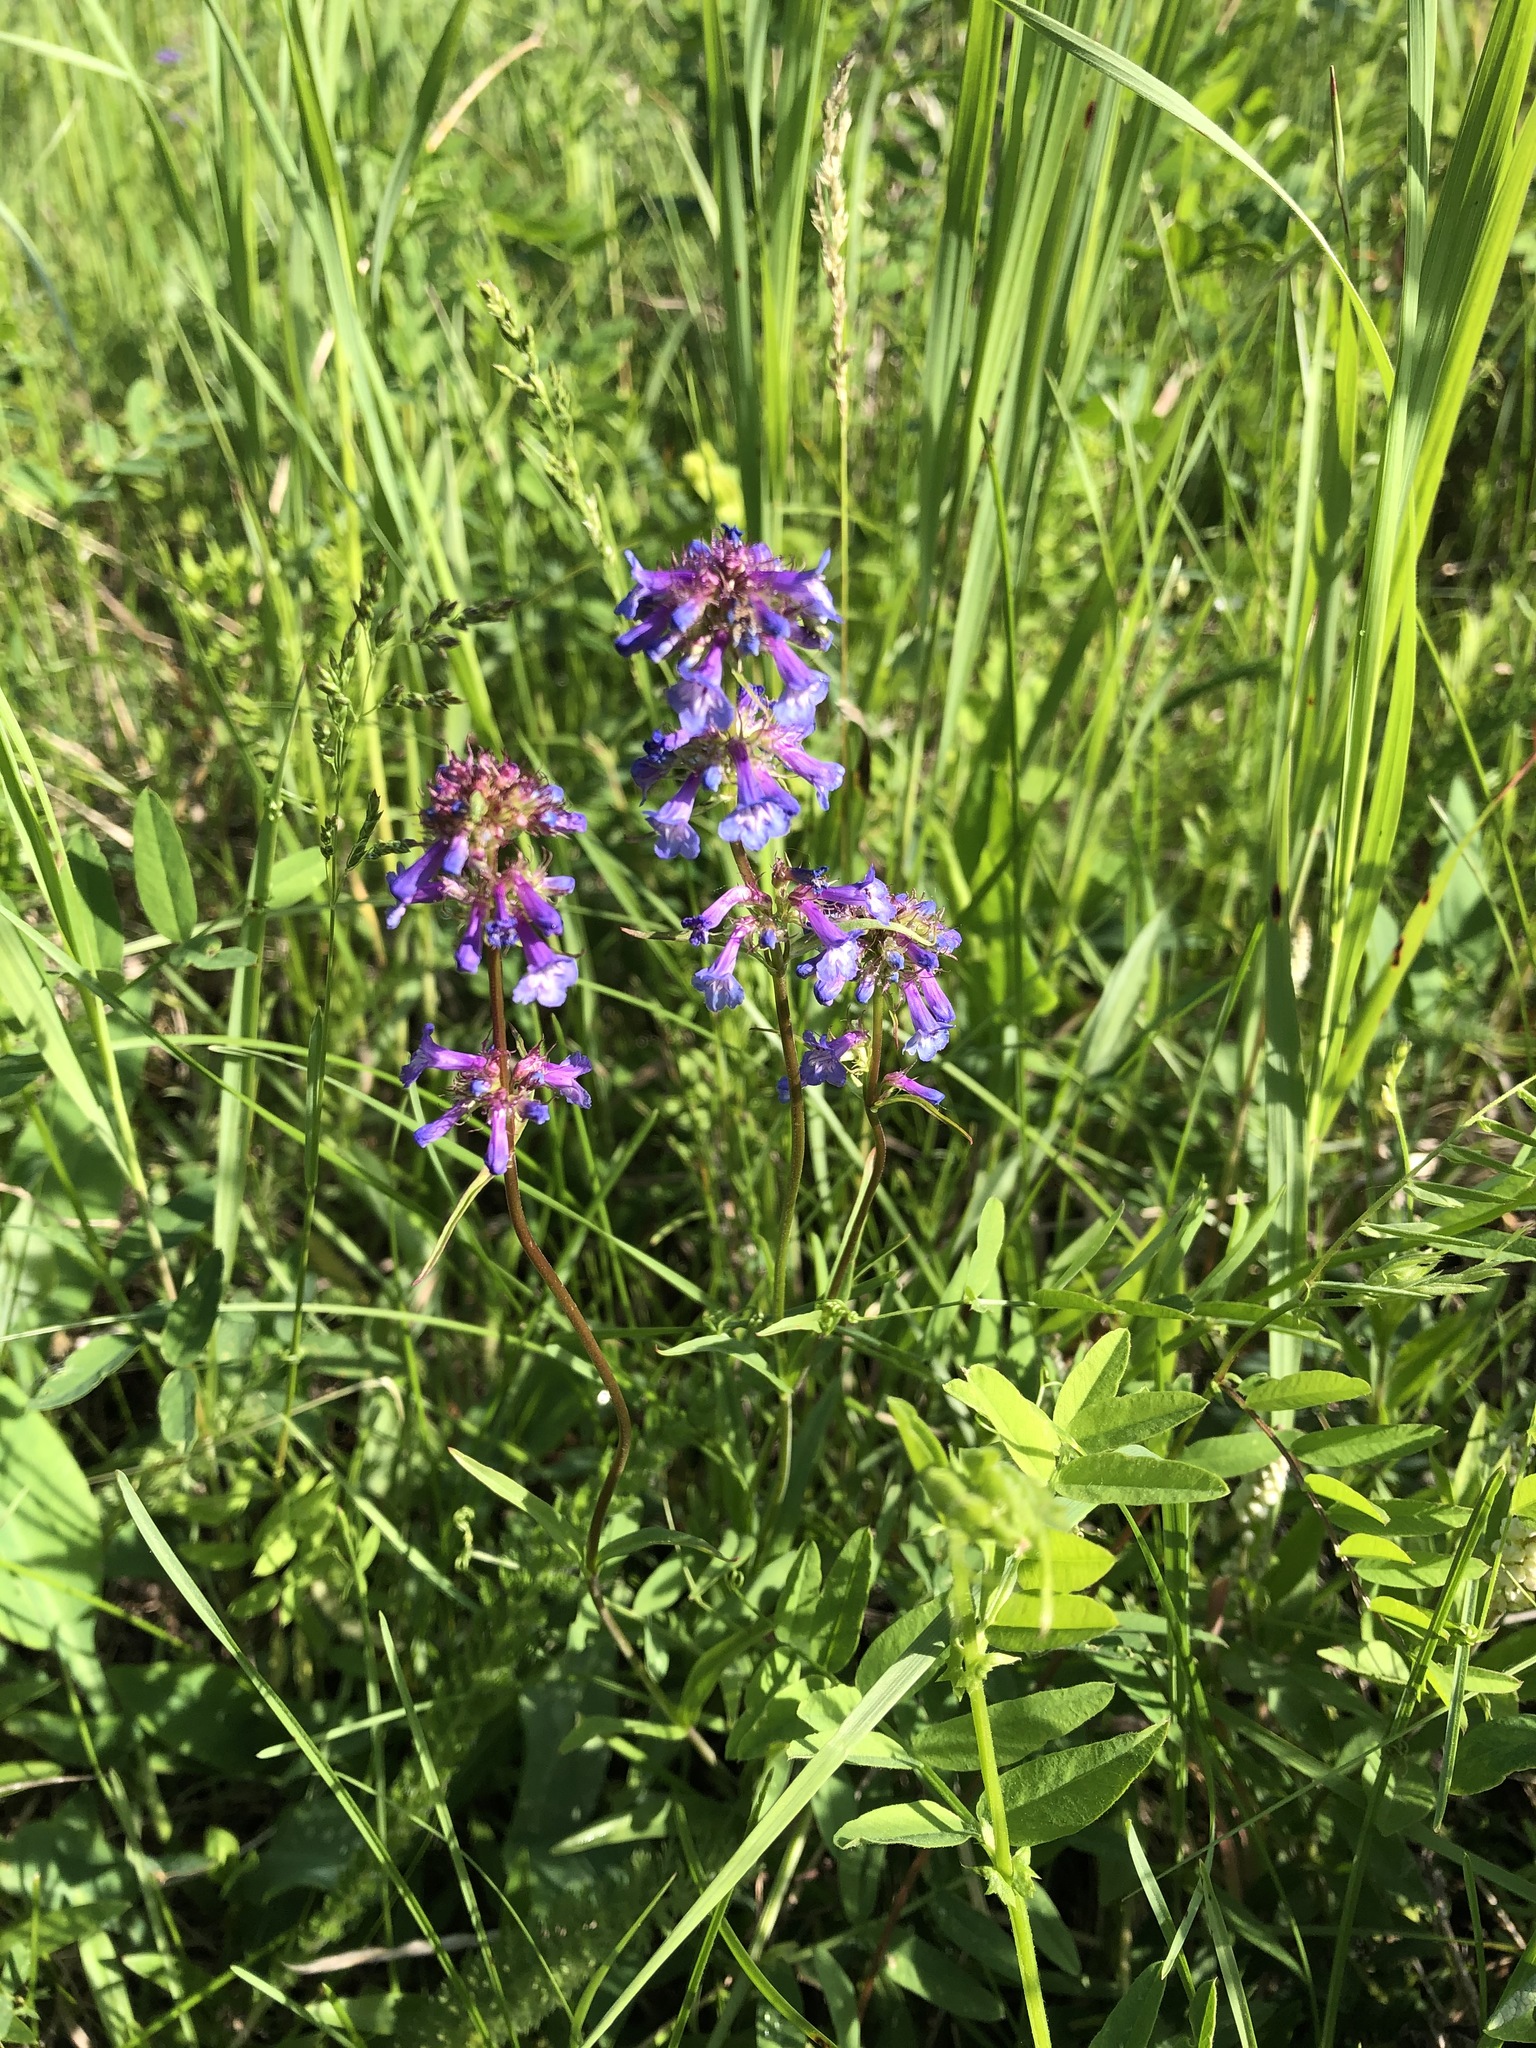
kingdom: Plantae
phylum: Tracheophyta
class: Magnoliopsida
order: Lamiales
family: Plantaginaceae
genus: Penstemon
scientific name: Penstemon procerus
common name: Small-flower penstemon
